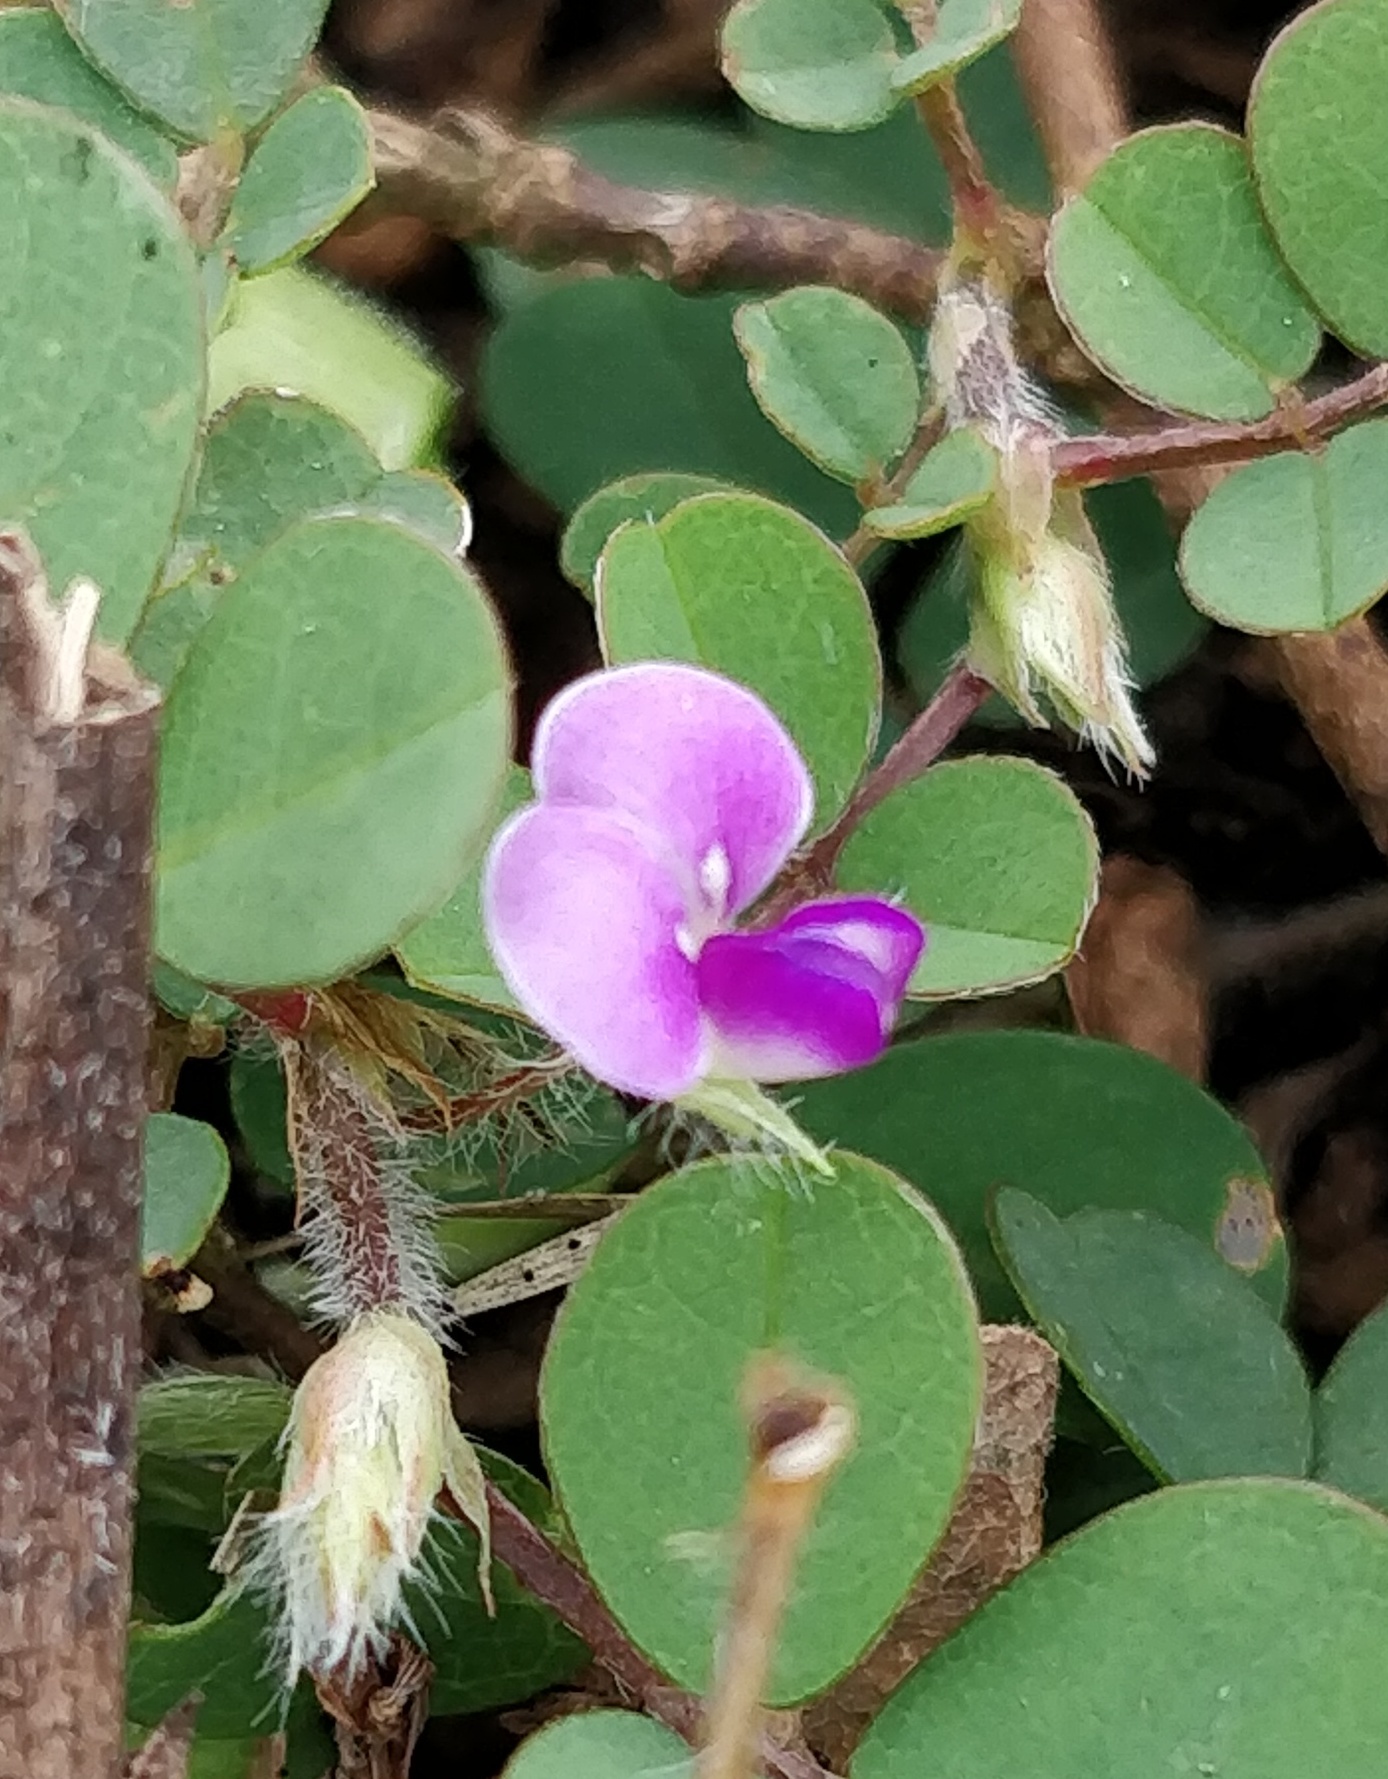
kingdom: Plantae
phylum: Tracheophyta
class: Magnoliopsida
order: Fabales
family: Fabaceae
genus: Grona
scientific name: Grona triflora
